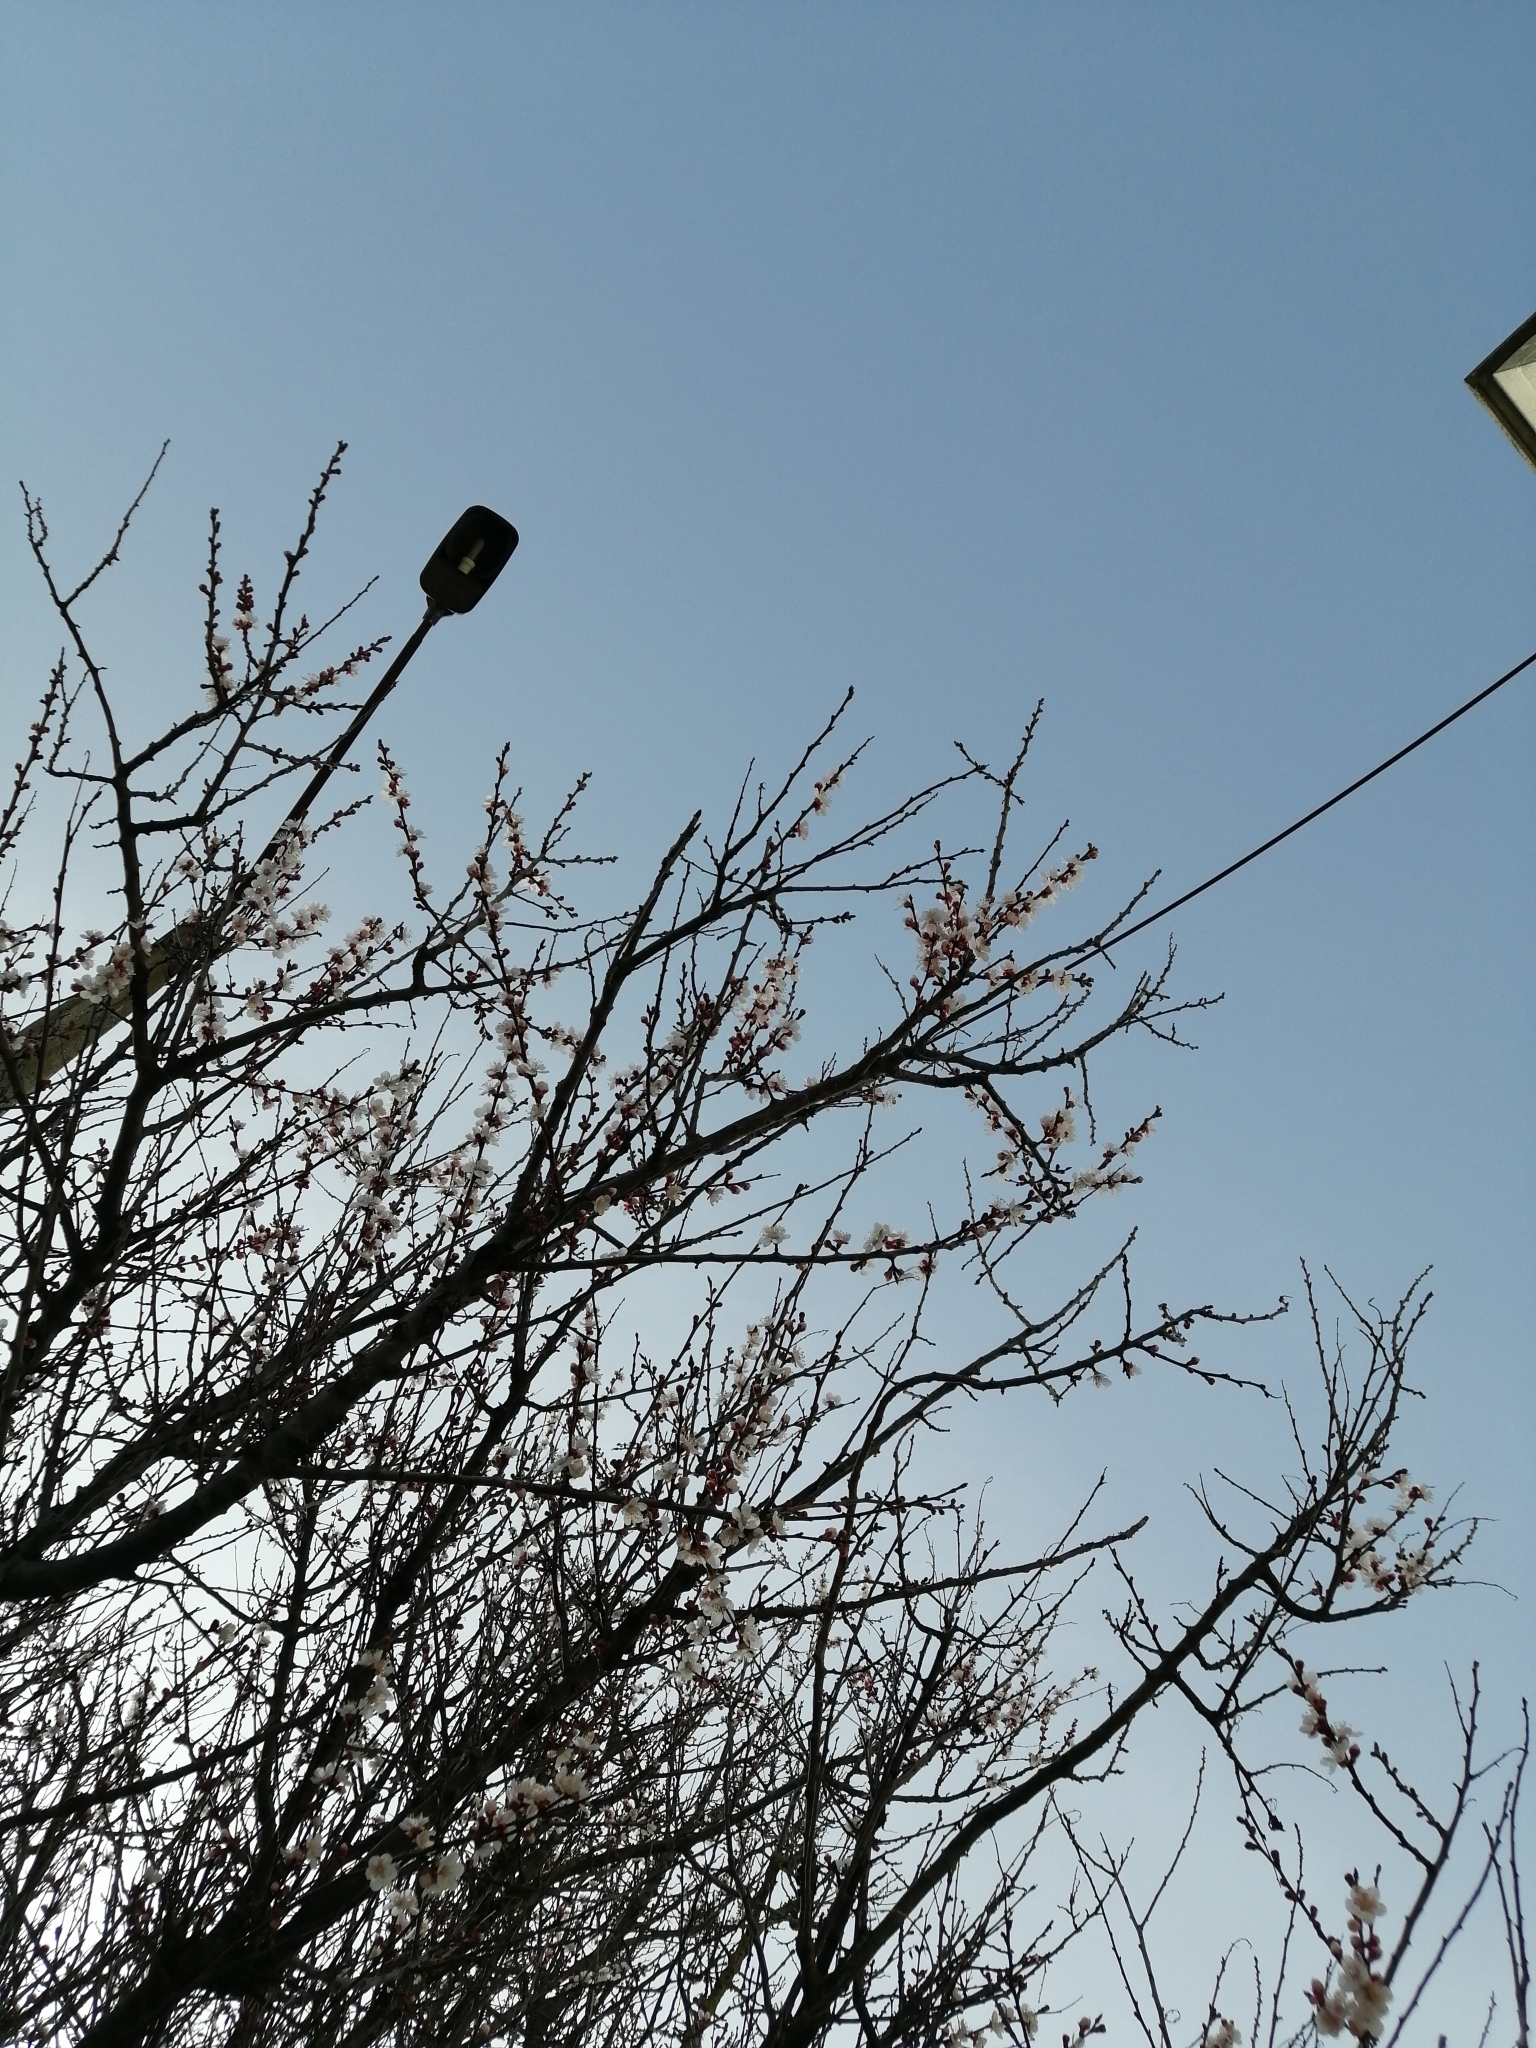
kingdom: Plantae
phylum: Tracheophyta
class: Magnoliopsida
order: Rosales
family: Rosaceae
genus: Prunus
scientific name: Prunus armeniaca
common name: Apricot
